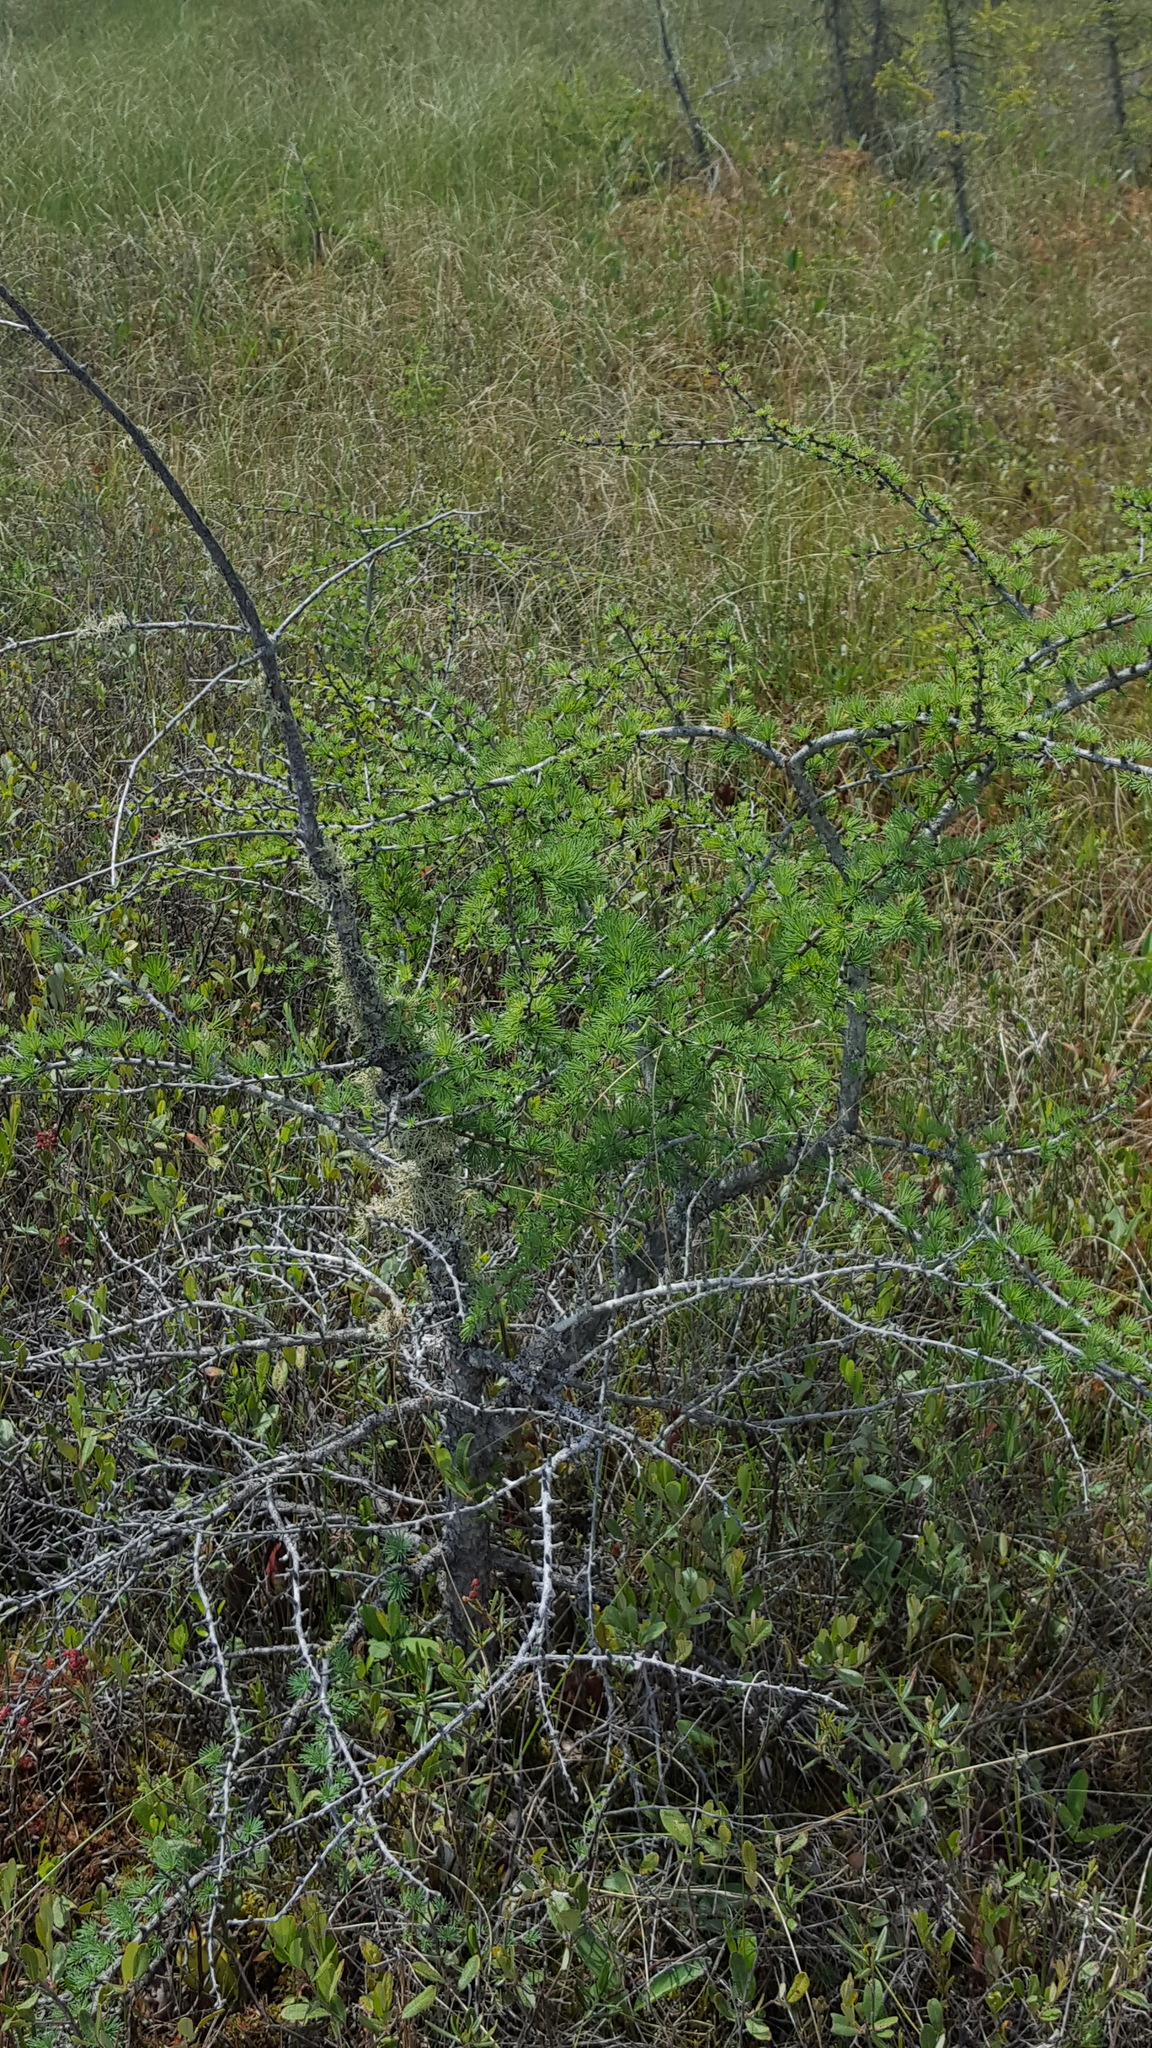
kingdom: Plantae
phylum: Tracheophyta
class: Pinopsida
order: Pinales
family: Pinaceae
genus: Larix
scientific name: Larix laricina
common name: American larch
